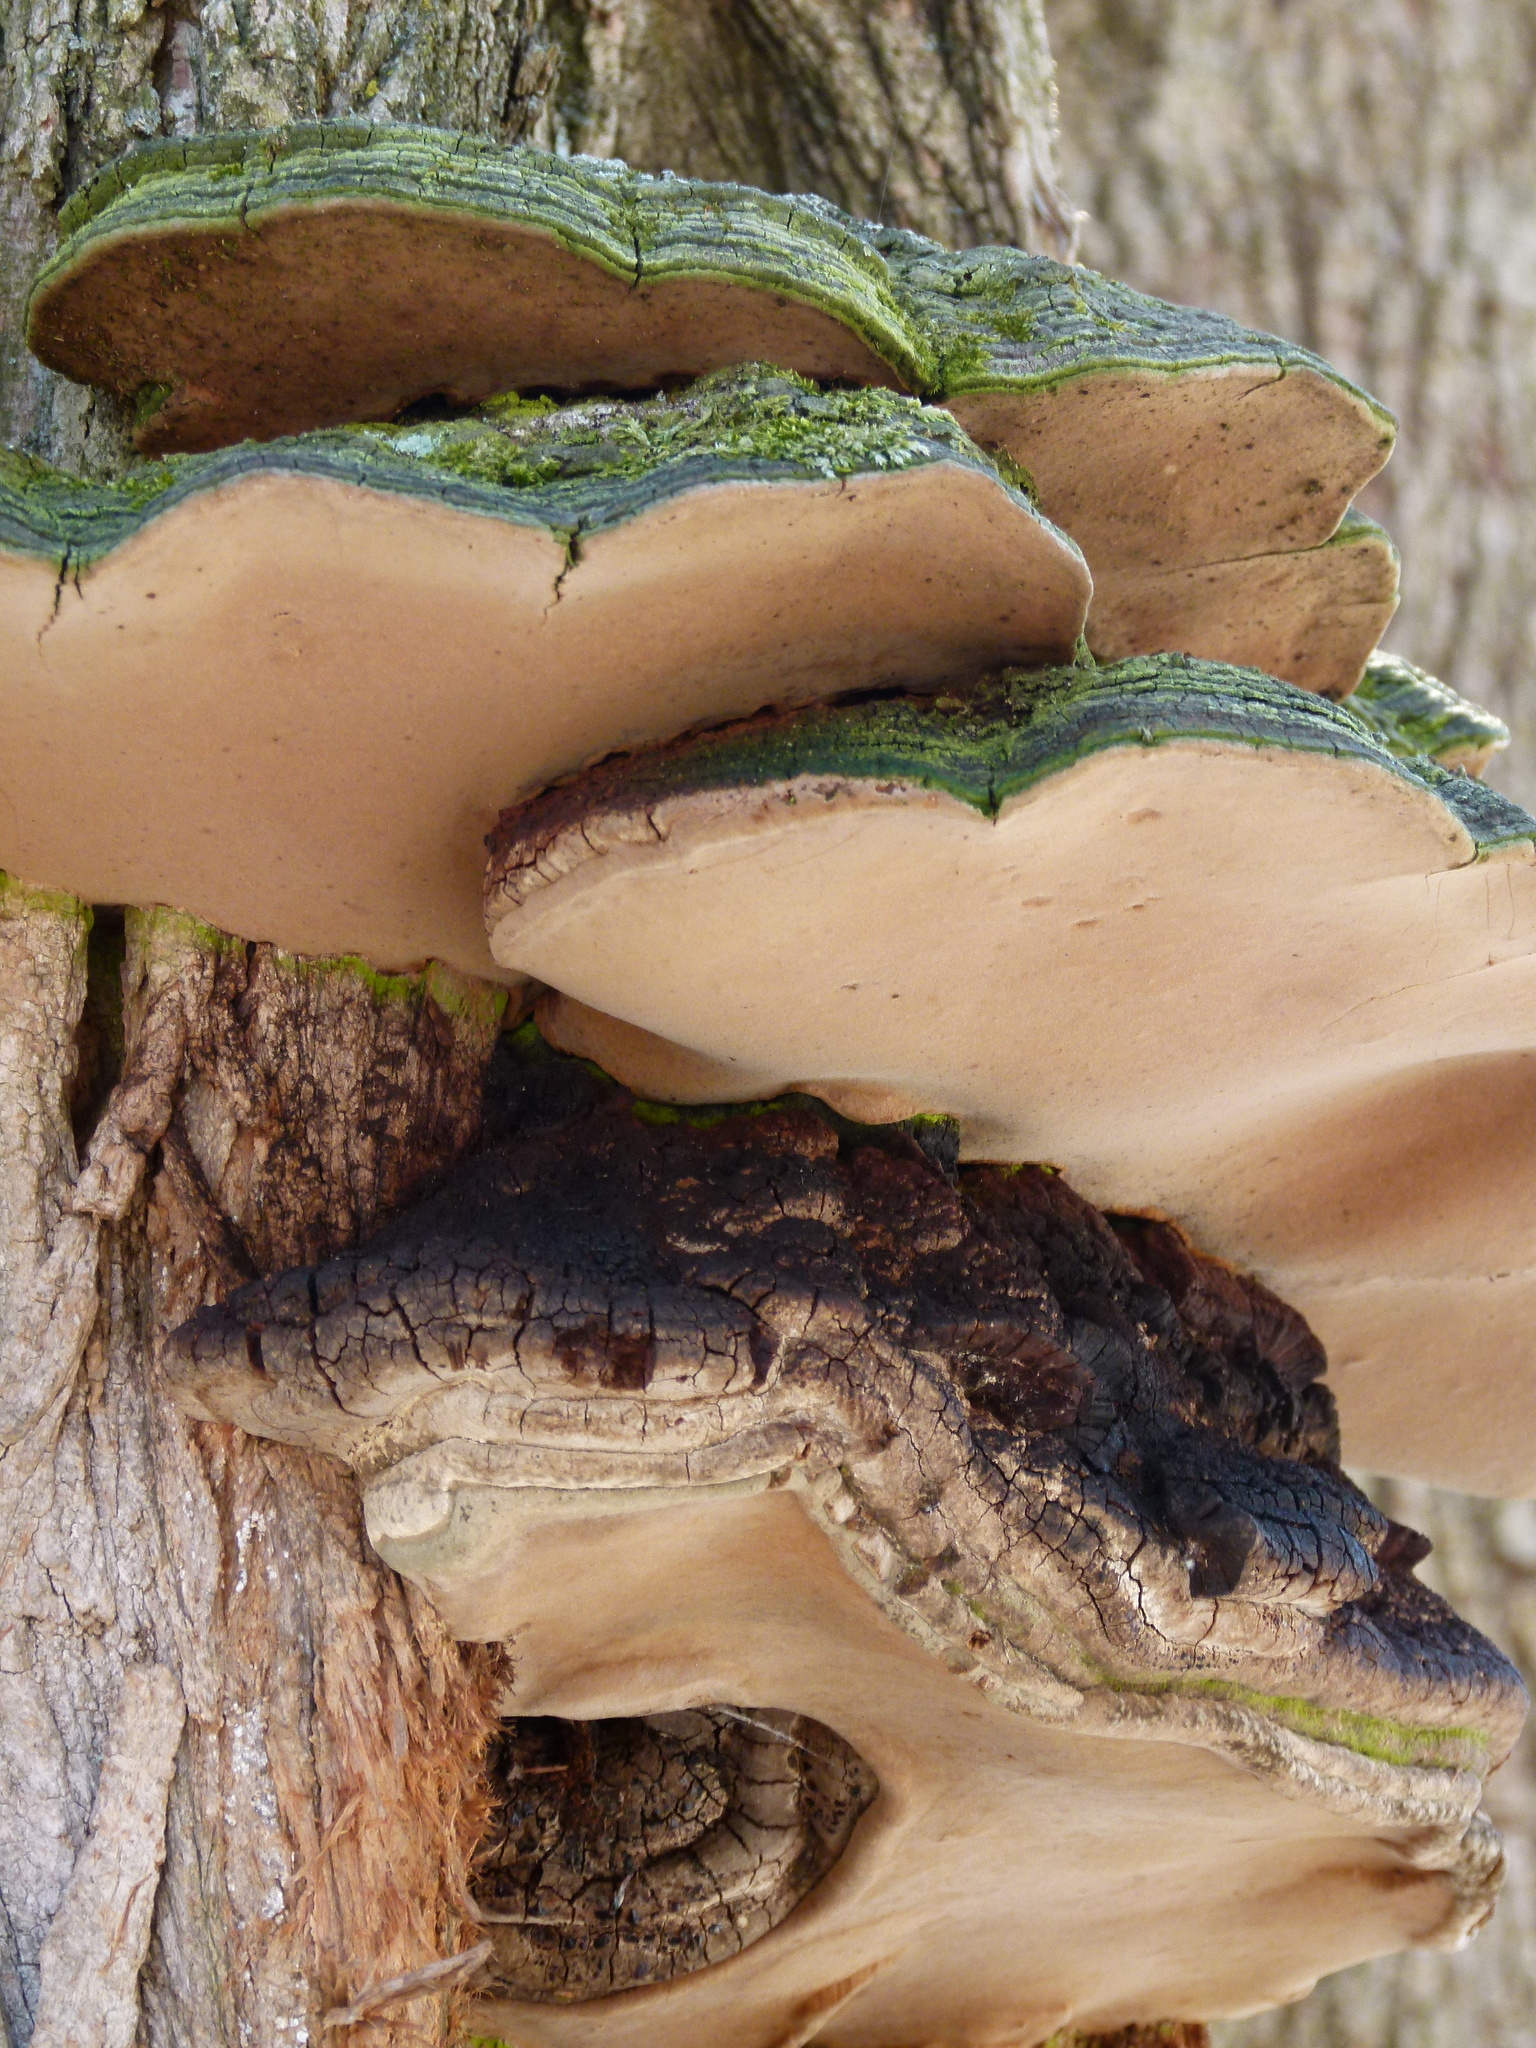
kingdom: Fungi
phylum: Basidiomycota
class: Agaricomycetes
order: Hymenochaetales
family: Hymenochaetaceae
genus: Phellinus
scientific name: Phellinus robiniae
